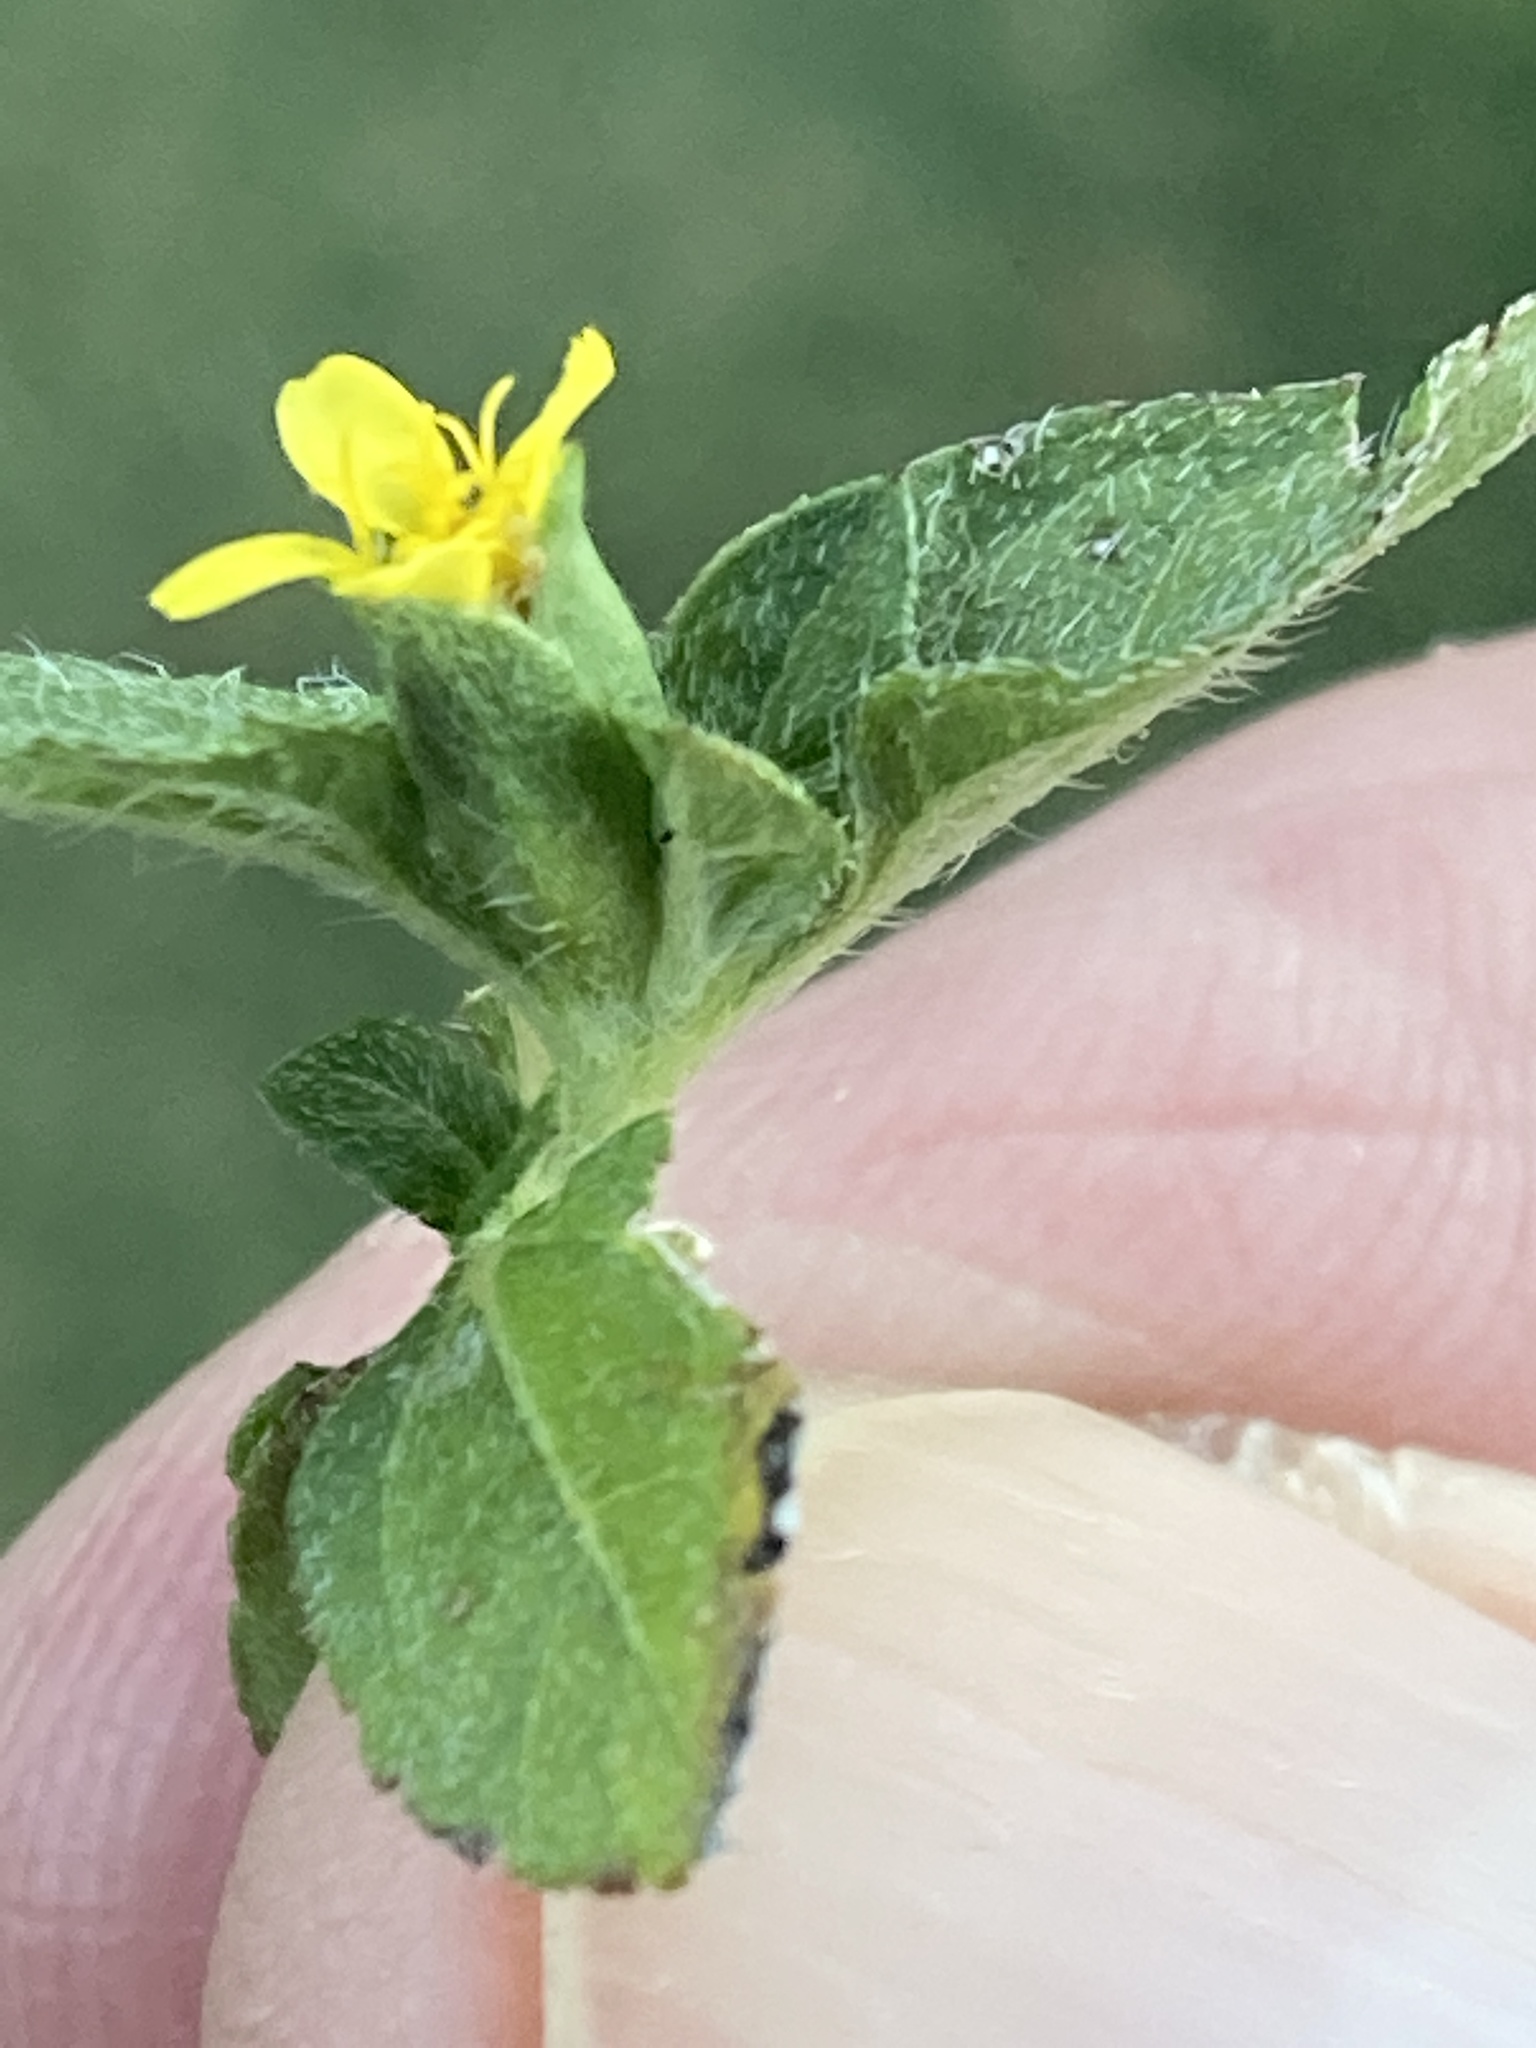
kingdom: Plantae
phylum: Tracheophyta
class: Magnoliopsida
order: Asterales
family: Asteraceae
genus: Calyptocarpus
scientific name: Calyptocarpus vialis
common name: Straggler daisy
